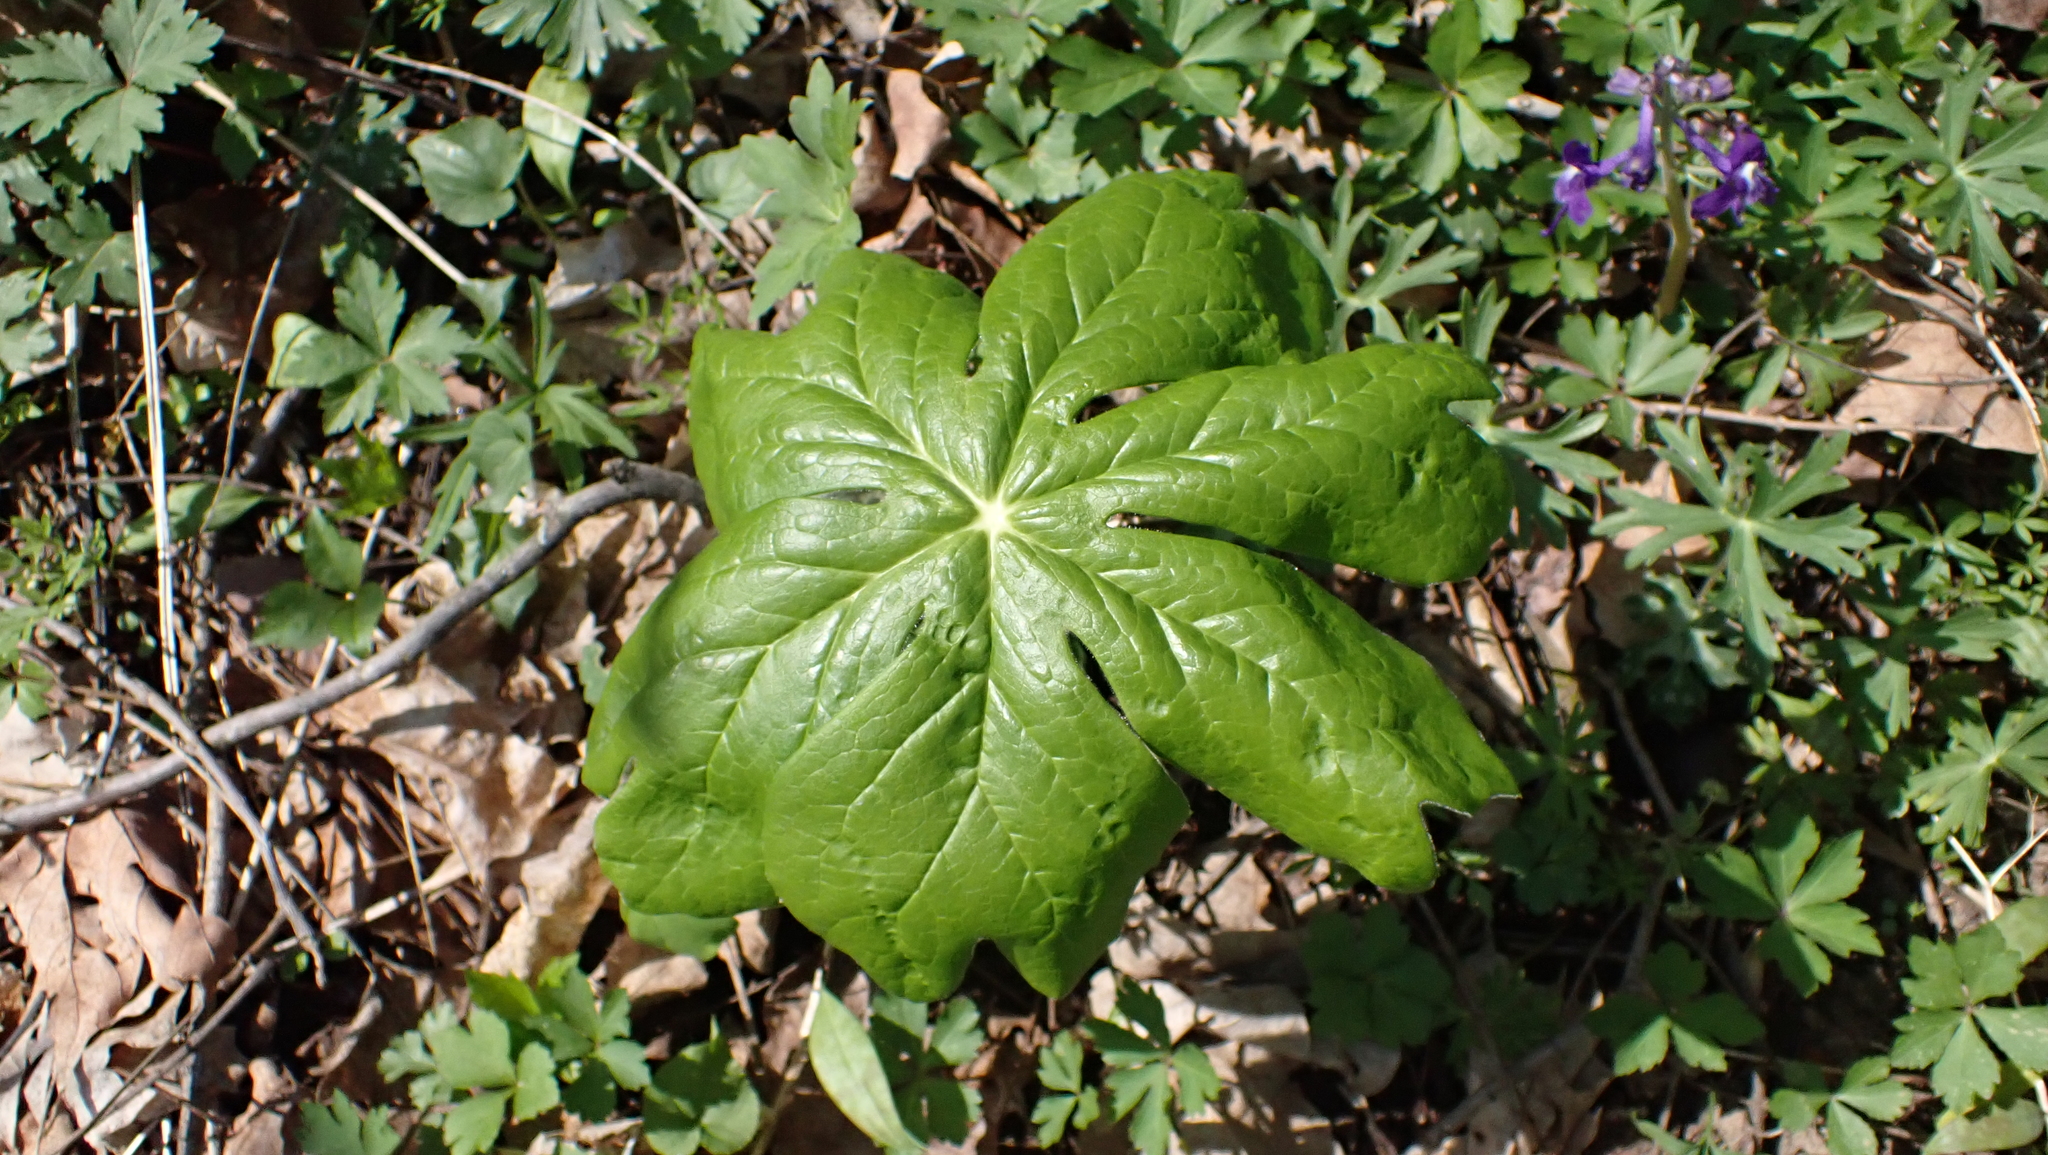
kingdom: Plantae
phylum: Tracheophyta
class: Magnoliopsida
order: Ranunculales
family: Berberidaceae
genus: Podophyllum
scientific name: Podophyllum peltatum
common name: Wild mandrake
